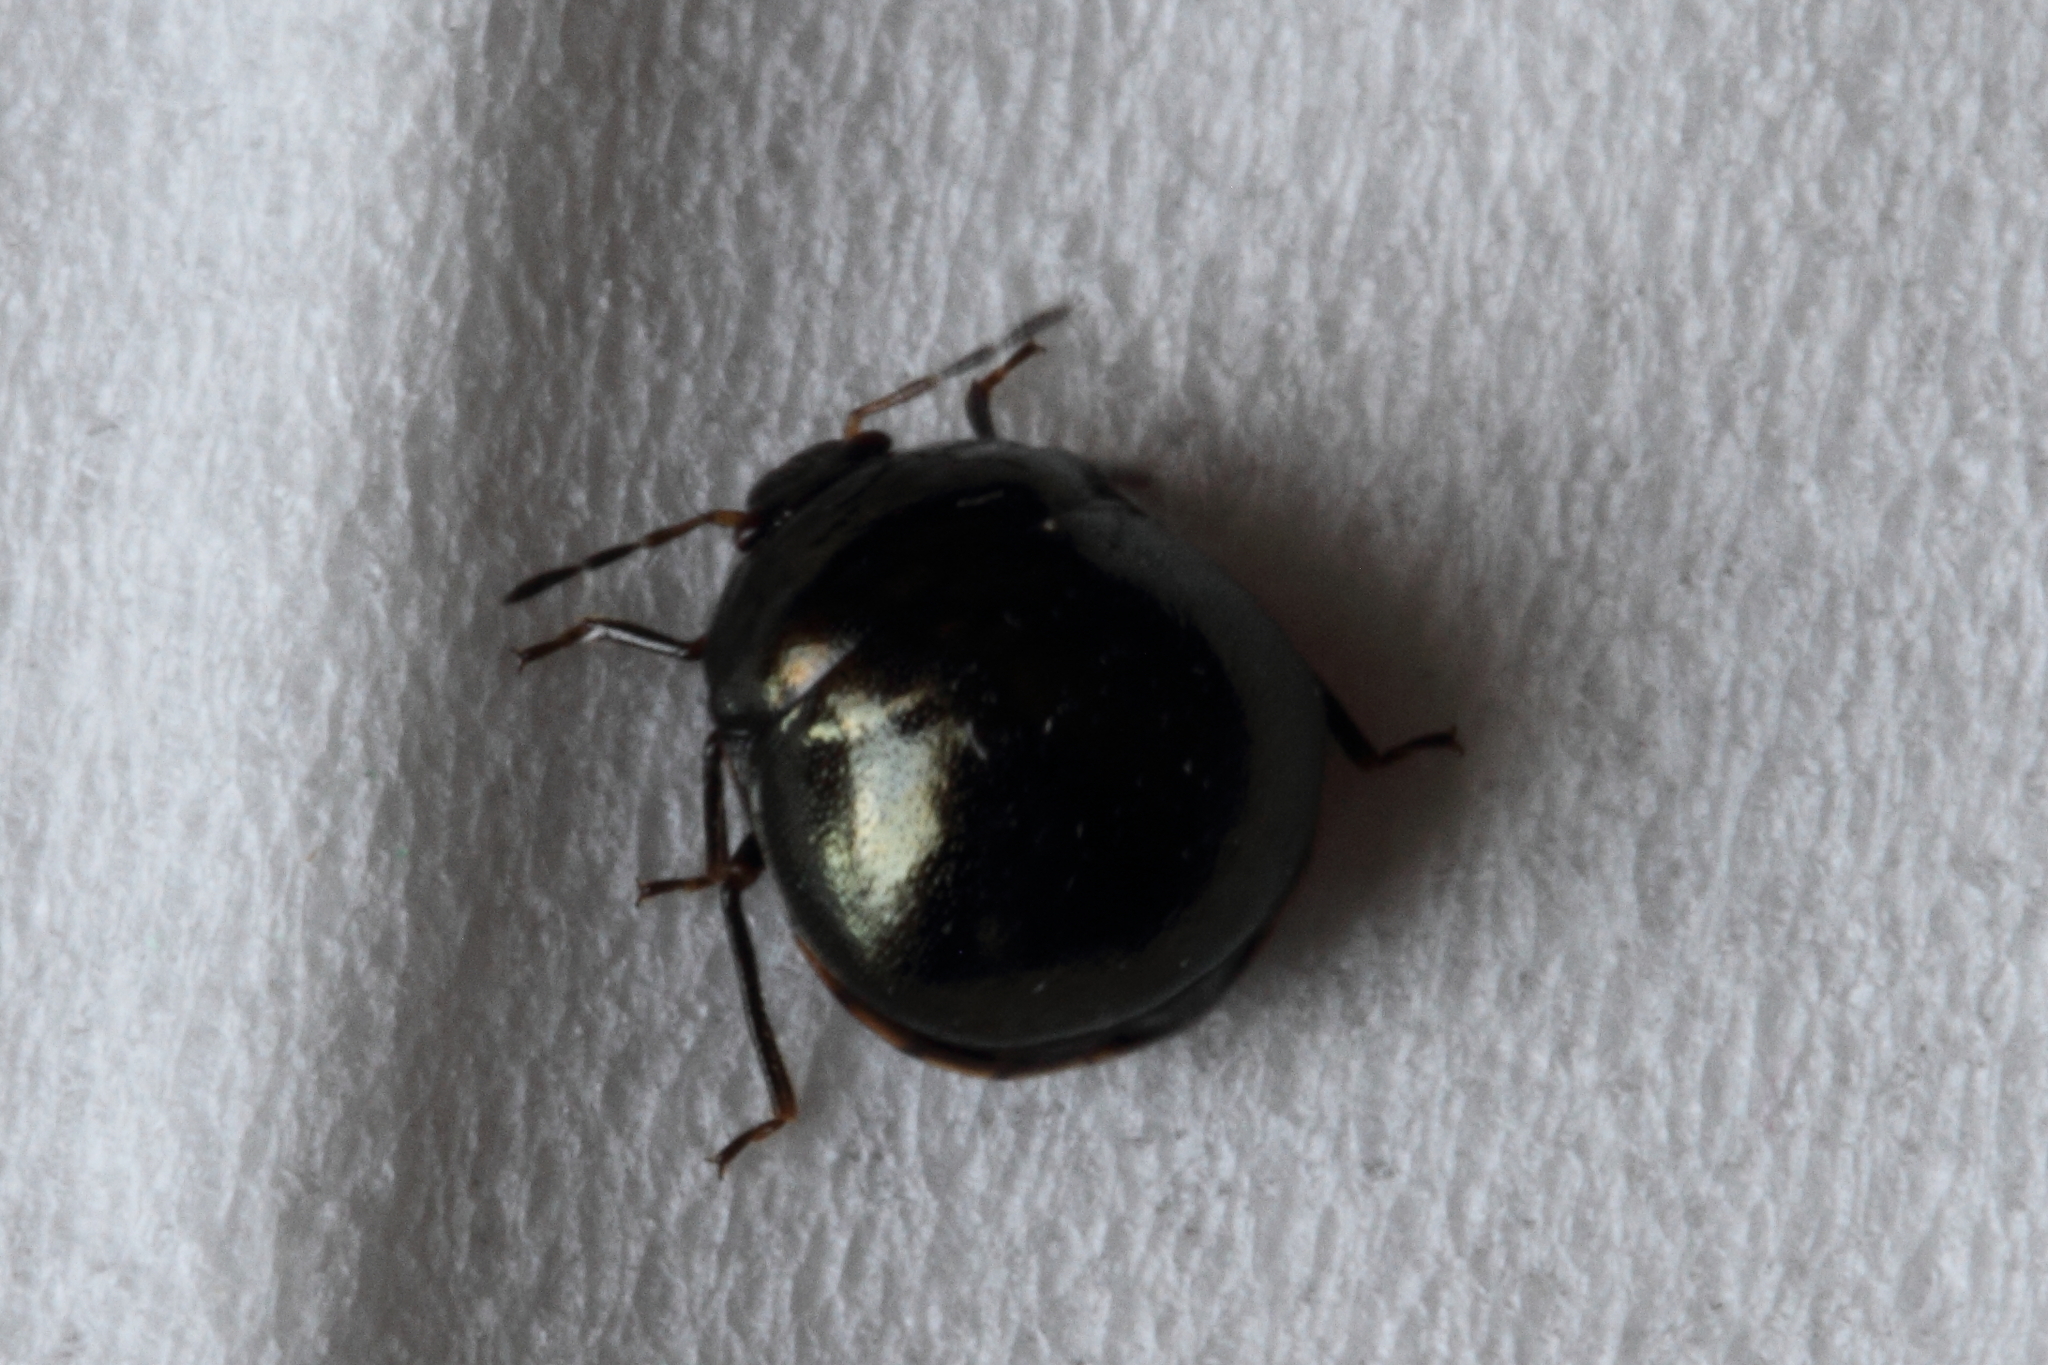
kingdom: Animalia
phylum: Arthropoda
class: Insecta
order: Hemiptera
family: Plataspidae
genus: Coptosoma
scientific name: Coptosoma scutellatum
